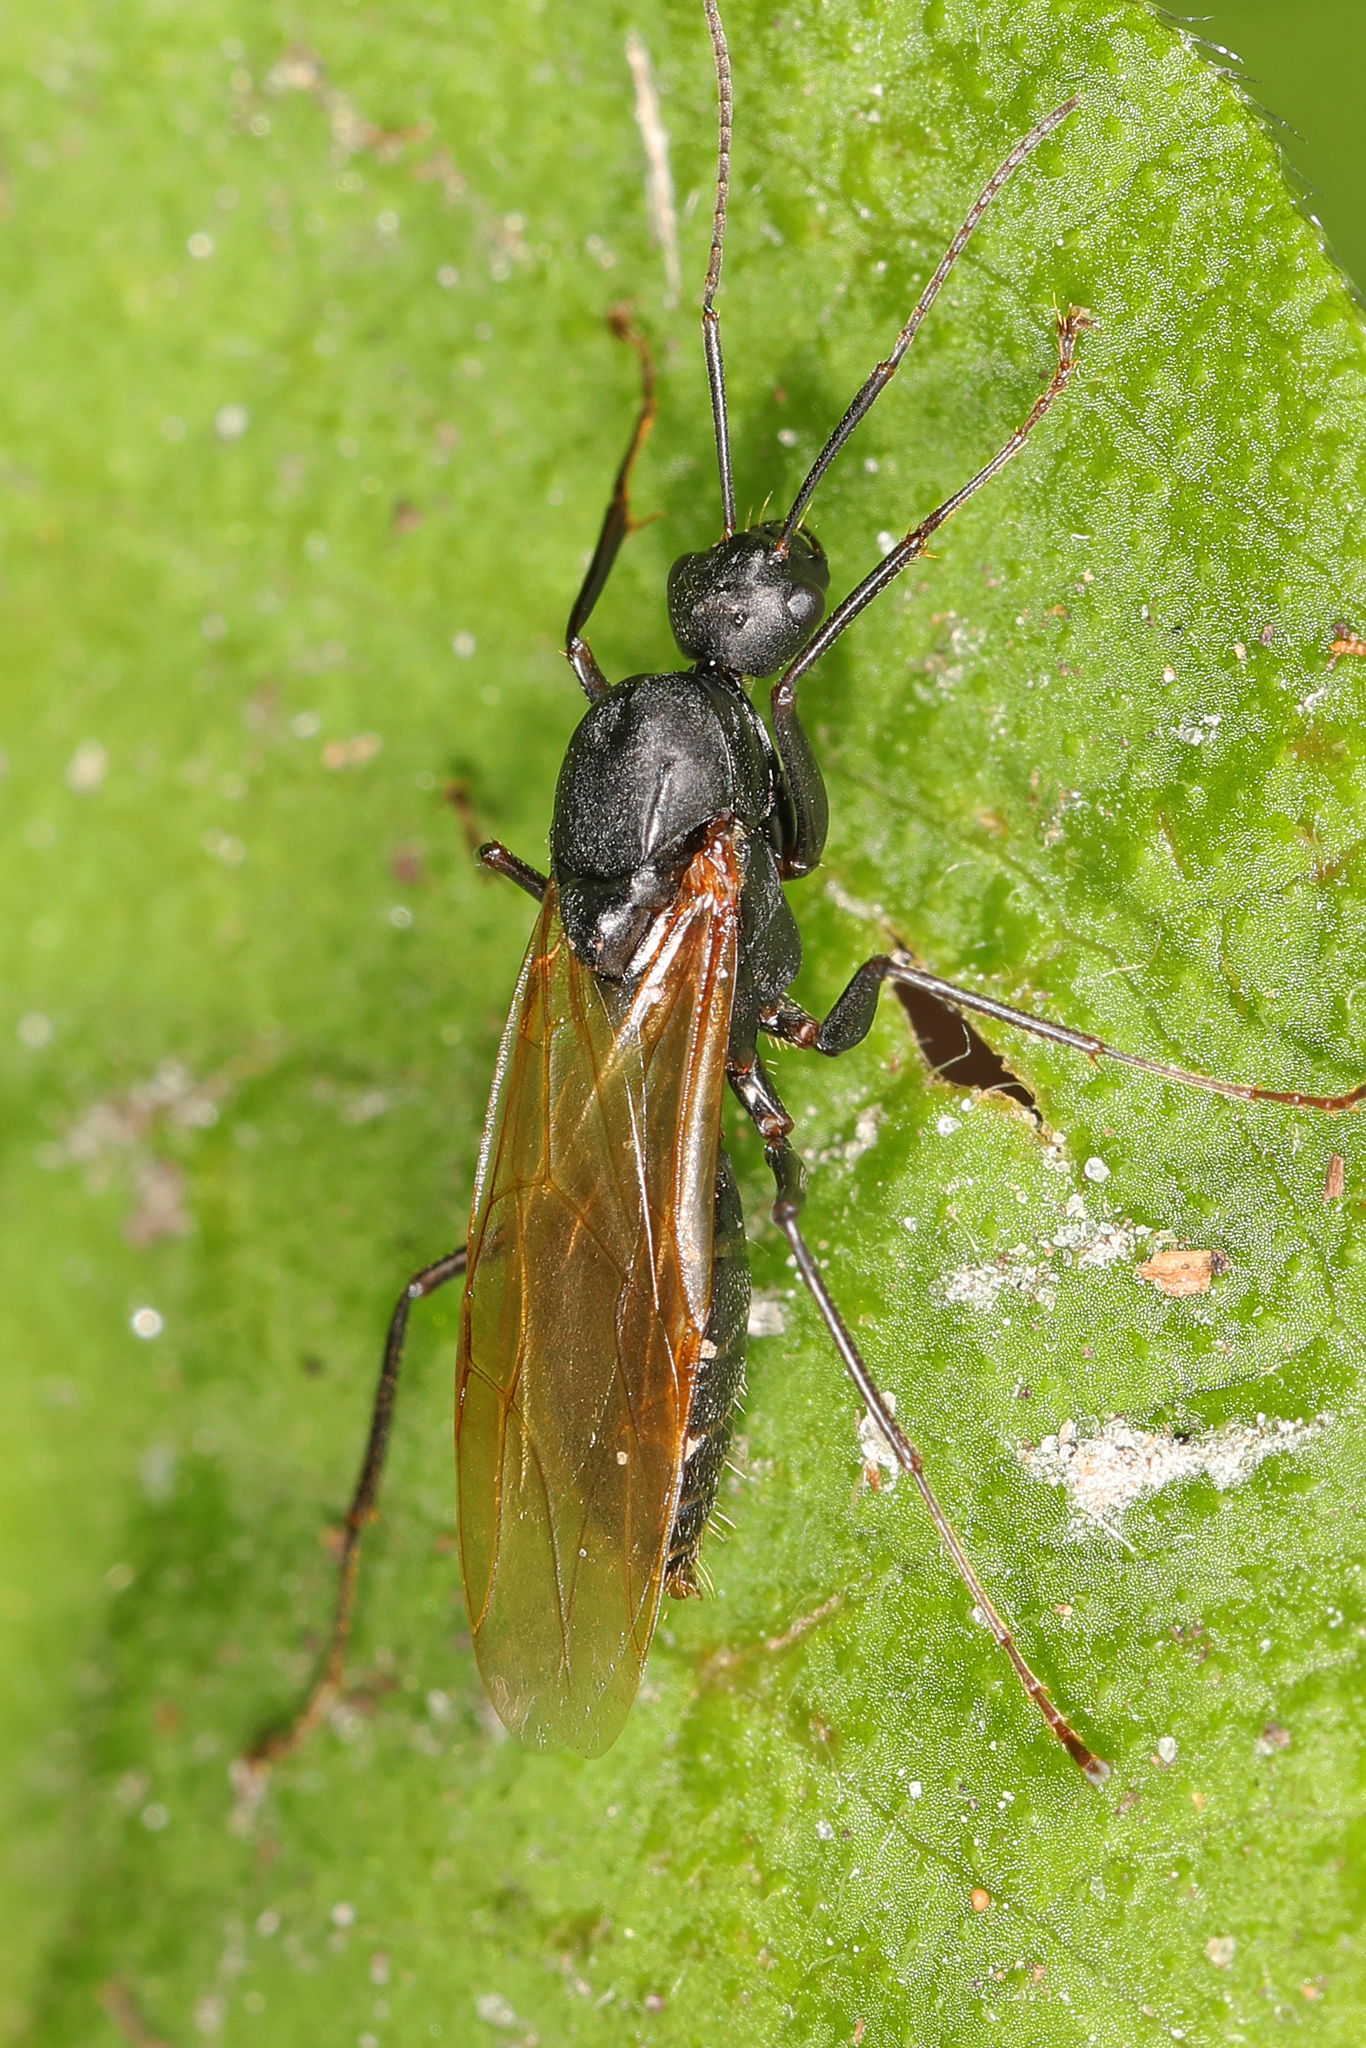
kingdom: Animalia
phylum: Arthropoda
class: Insecta
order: Hymenoptera
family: Formicidae
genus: Camponotus
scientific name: Camponotus pennsylvanicus
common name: Black carpenter ant
